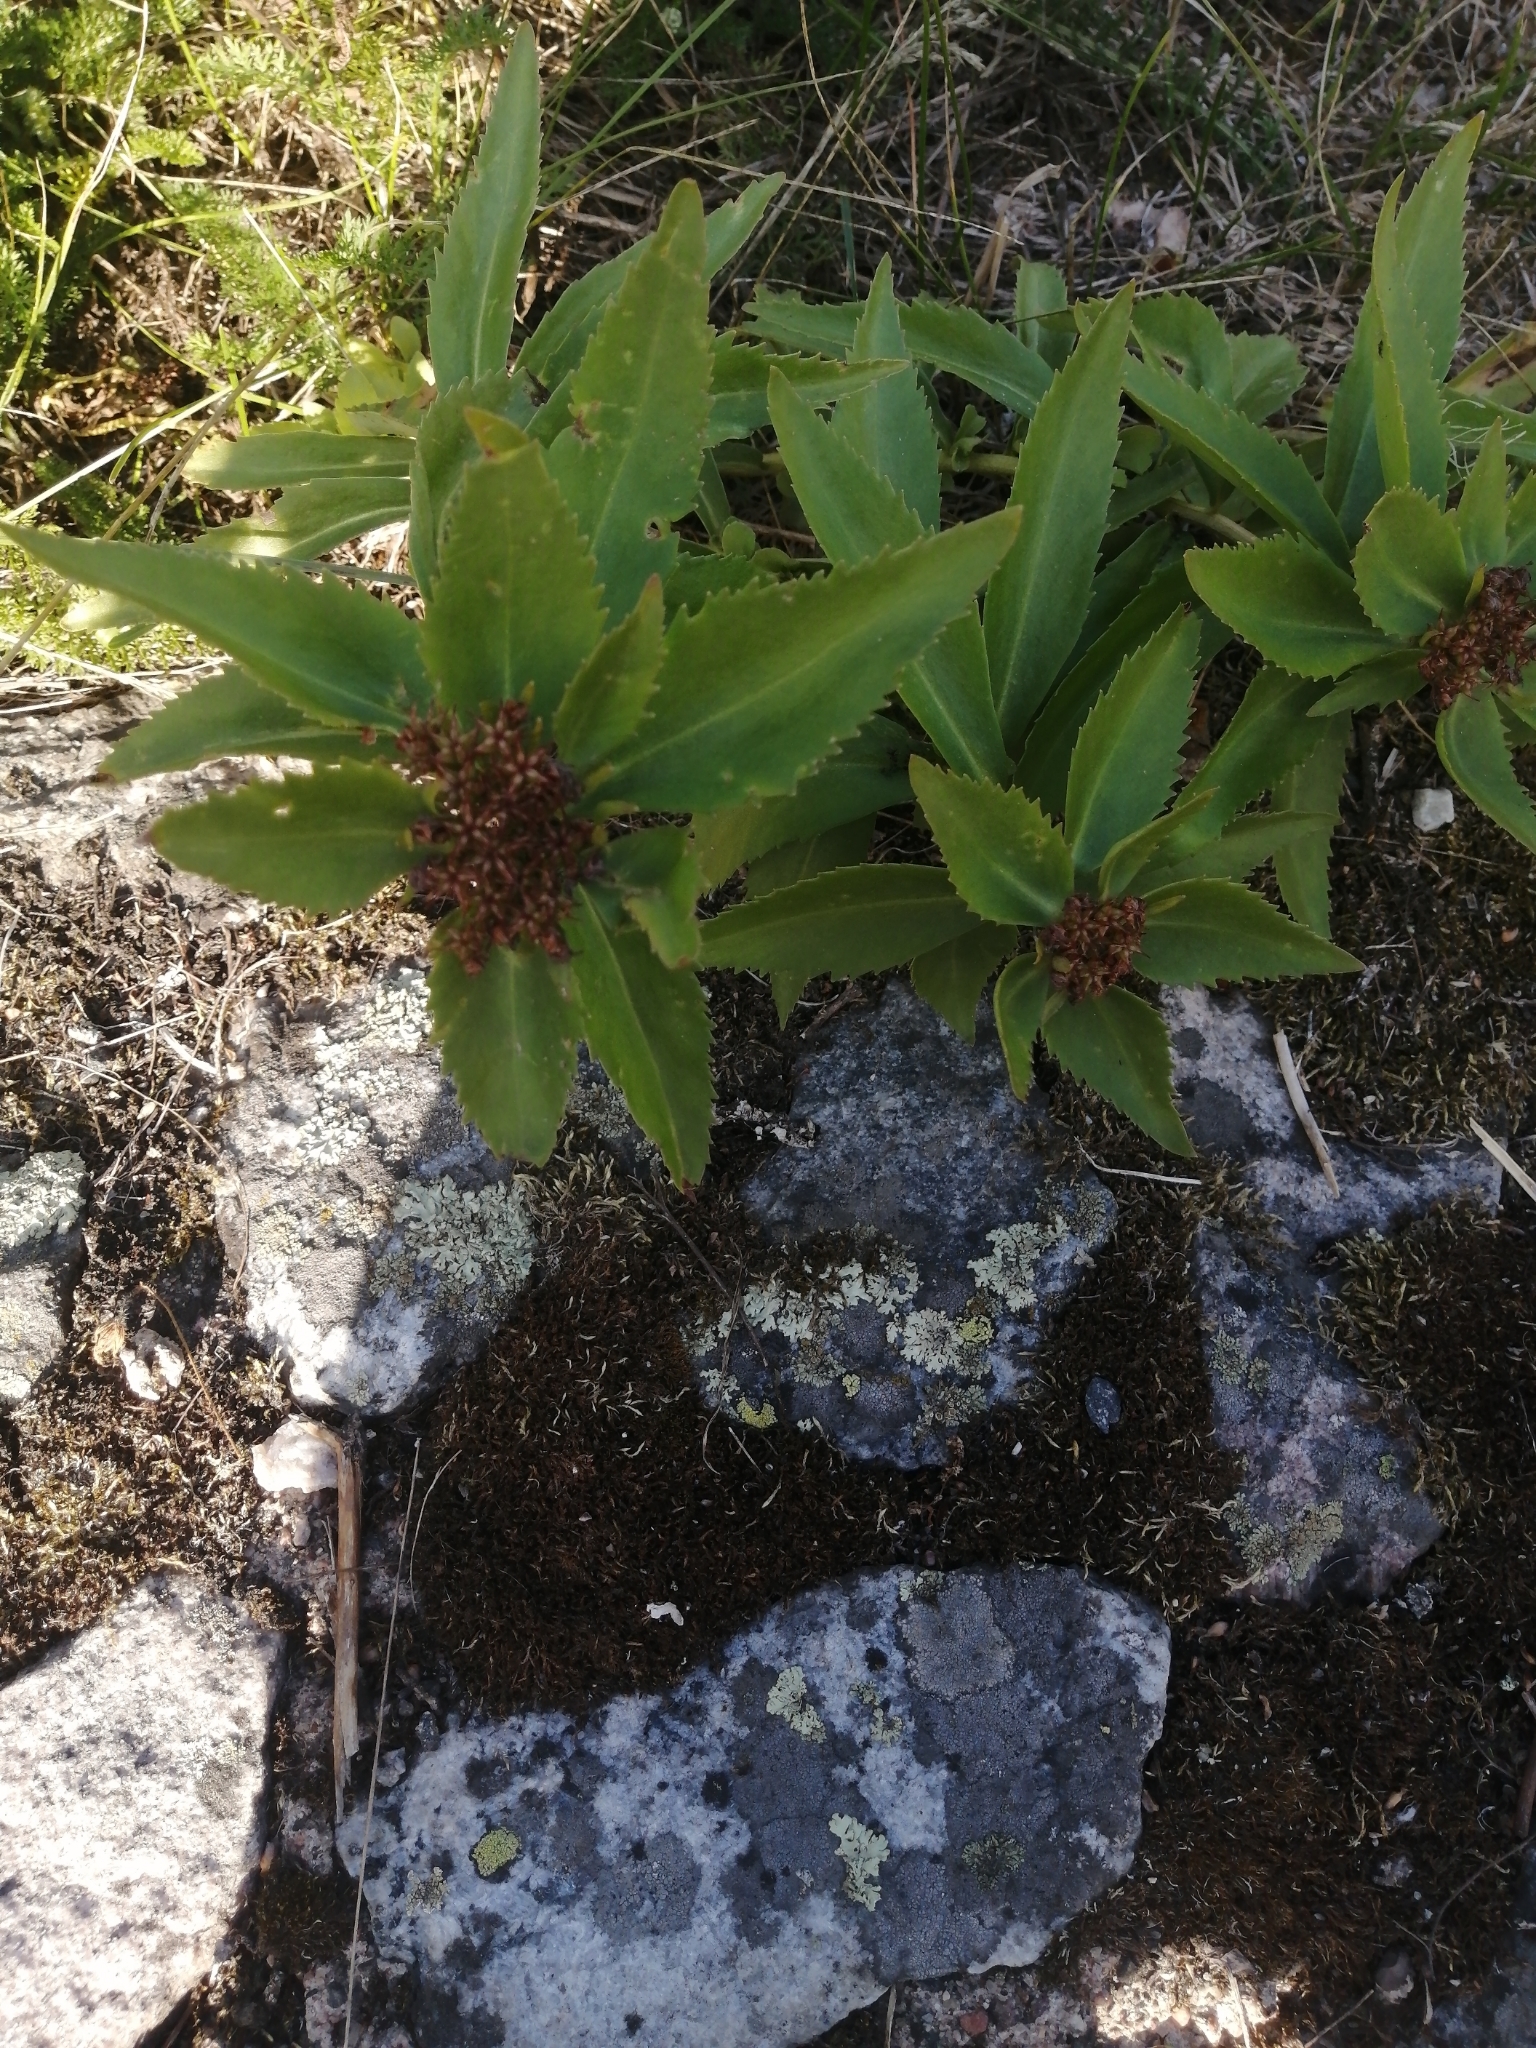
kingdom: Plantae
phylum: Tracheophyta
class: Magnoliopsida
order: Saxifragales
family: Crassulaceae
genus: Phedimus
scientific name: Phedimus aizoon
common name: Orpin aizoon
